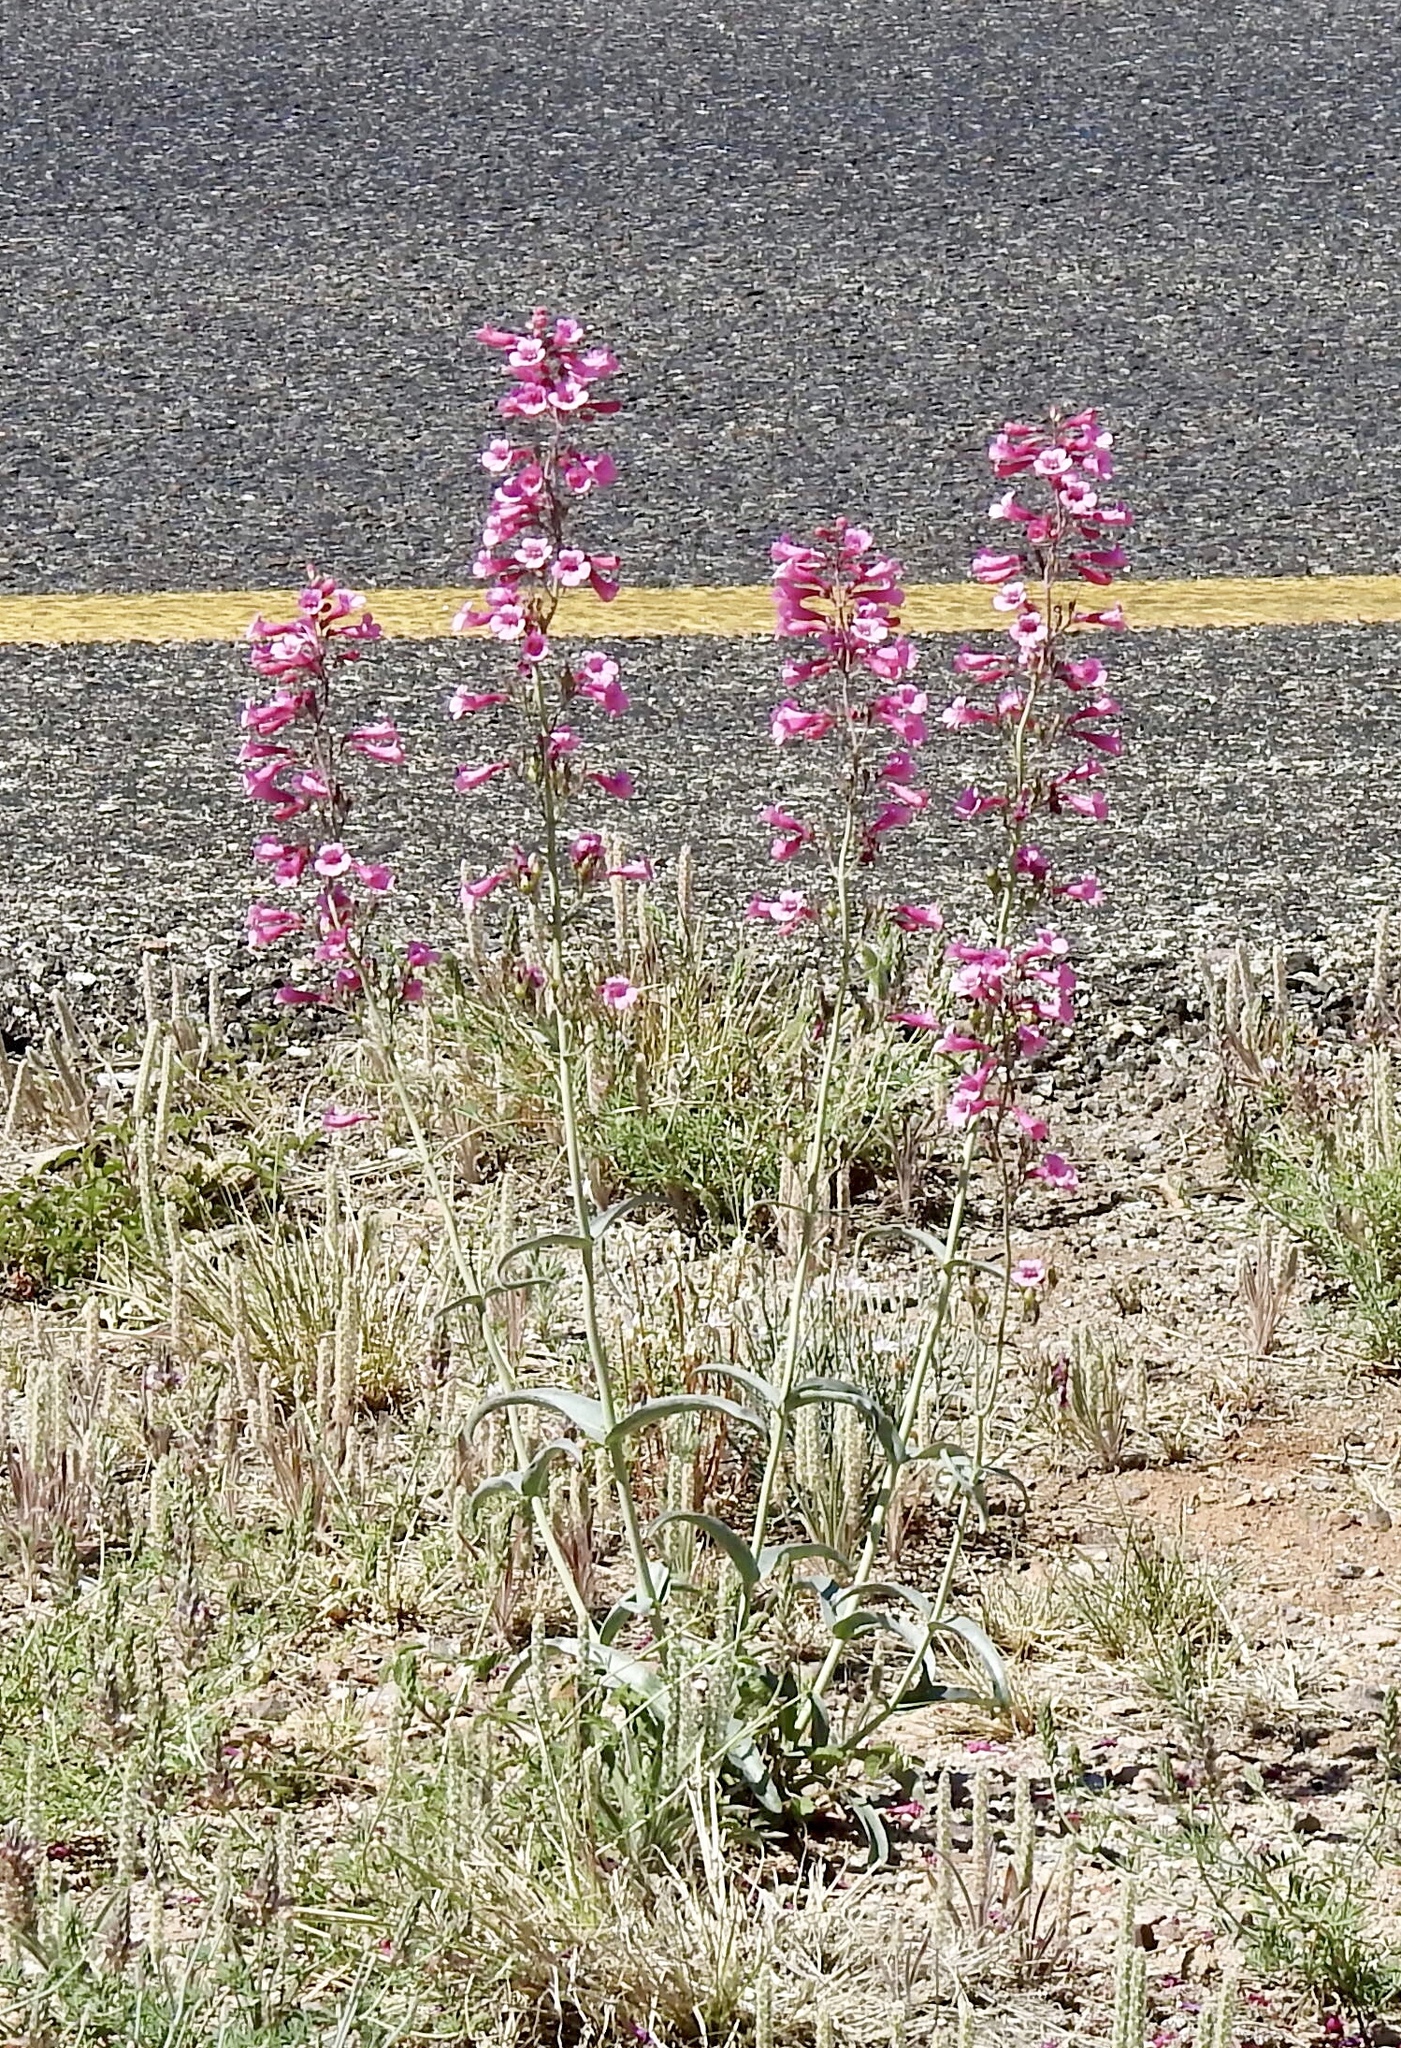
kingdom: Plantae
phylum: Tracheophyta
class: Magnoliopsida
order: Lamiales
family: Plantaginaceae
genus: Penstemon
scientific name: Penstemon parryi
